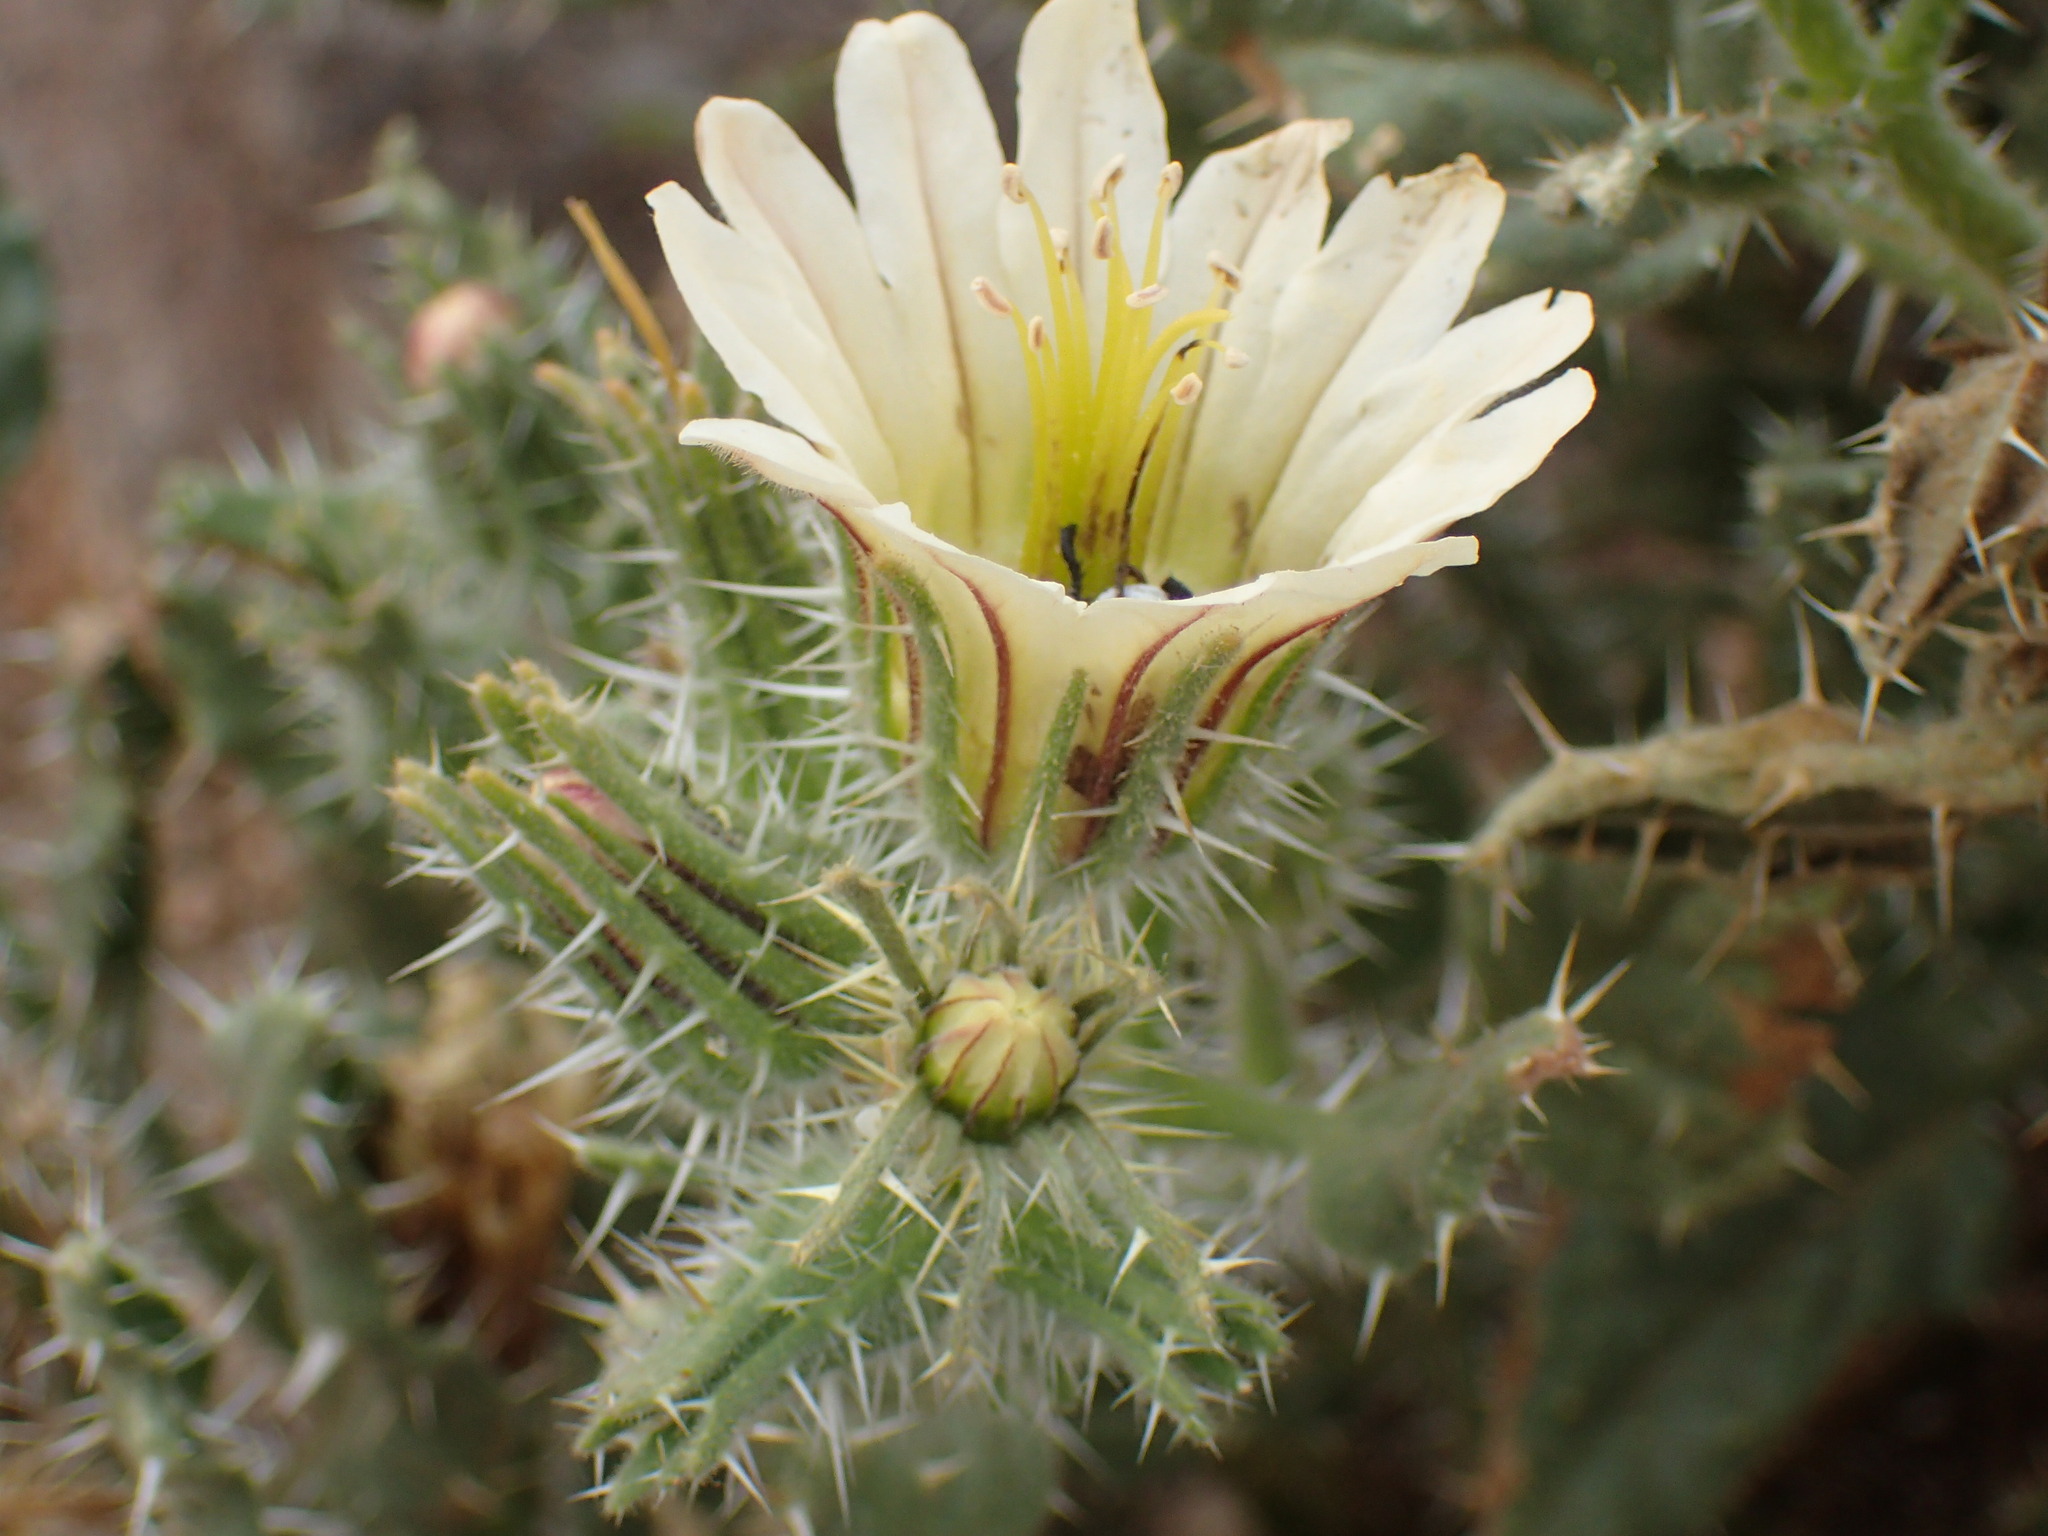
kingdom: Plantae
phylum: Tracheophyta
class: Magnoliopsida
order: Boraginales
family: Boraginaceae
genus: Codon
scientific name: Codon royenii
